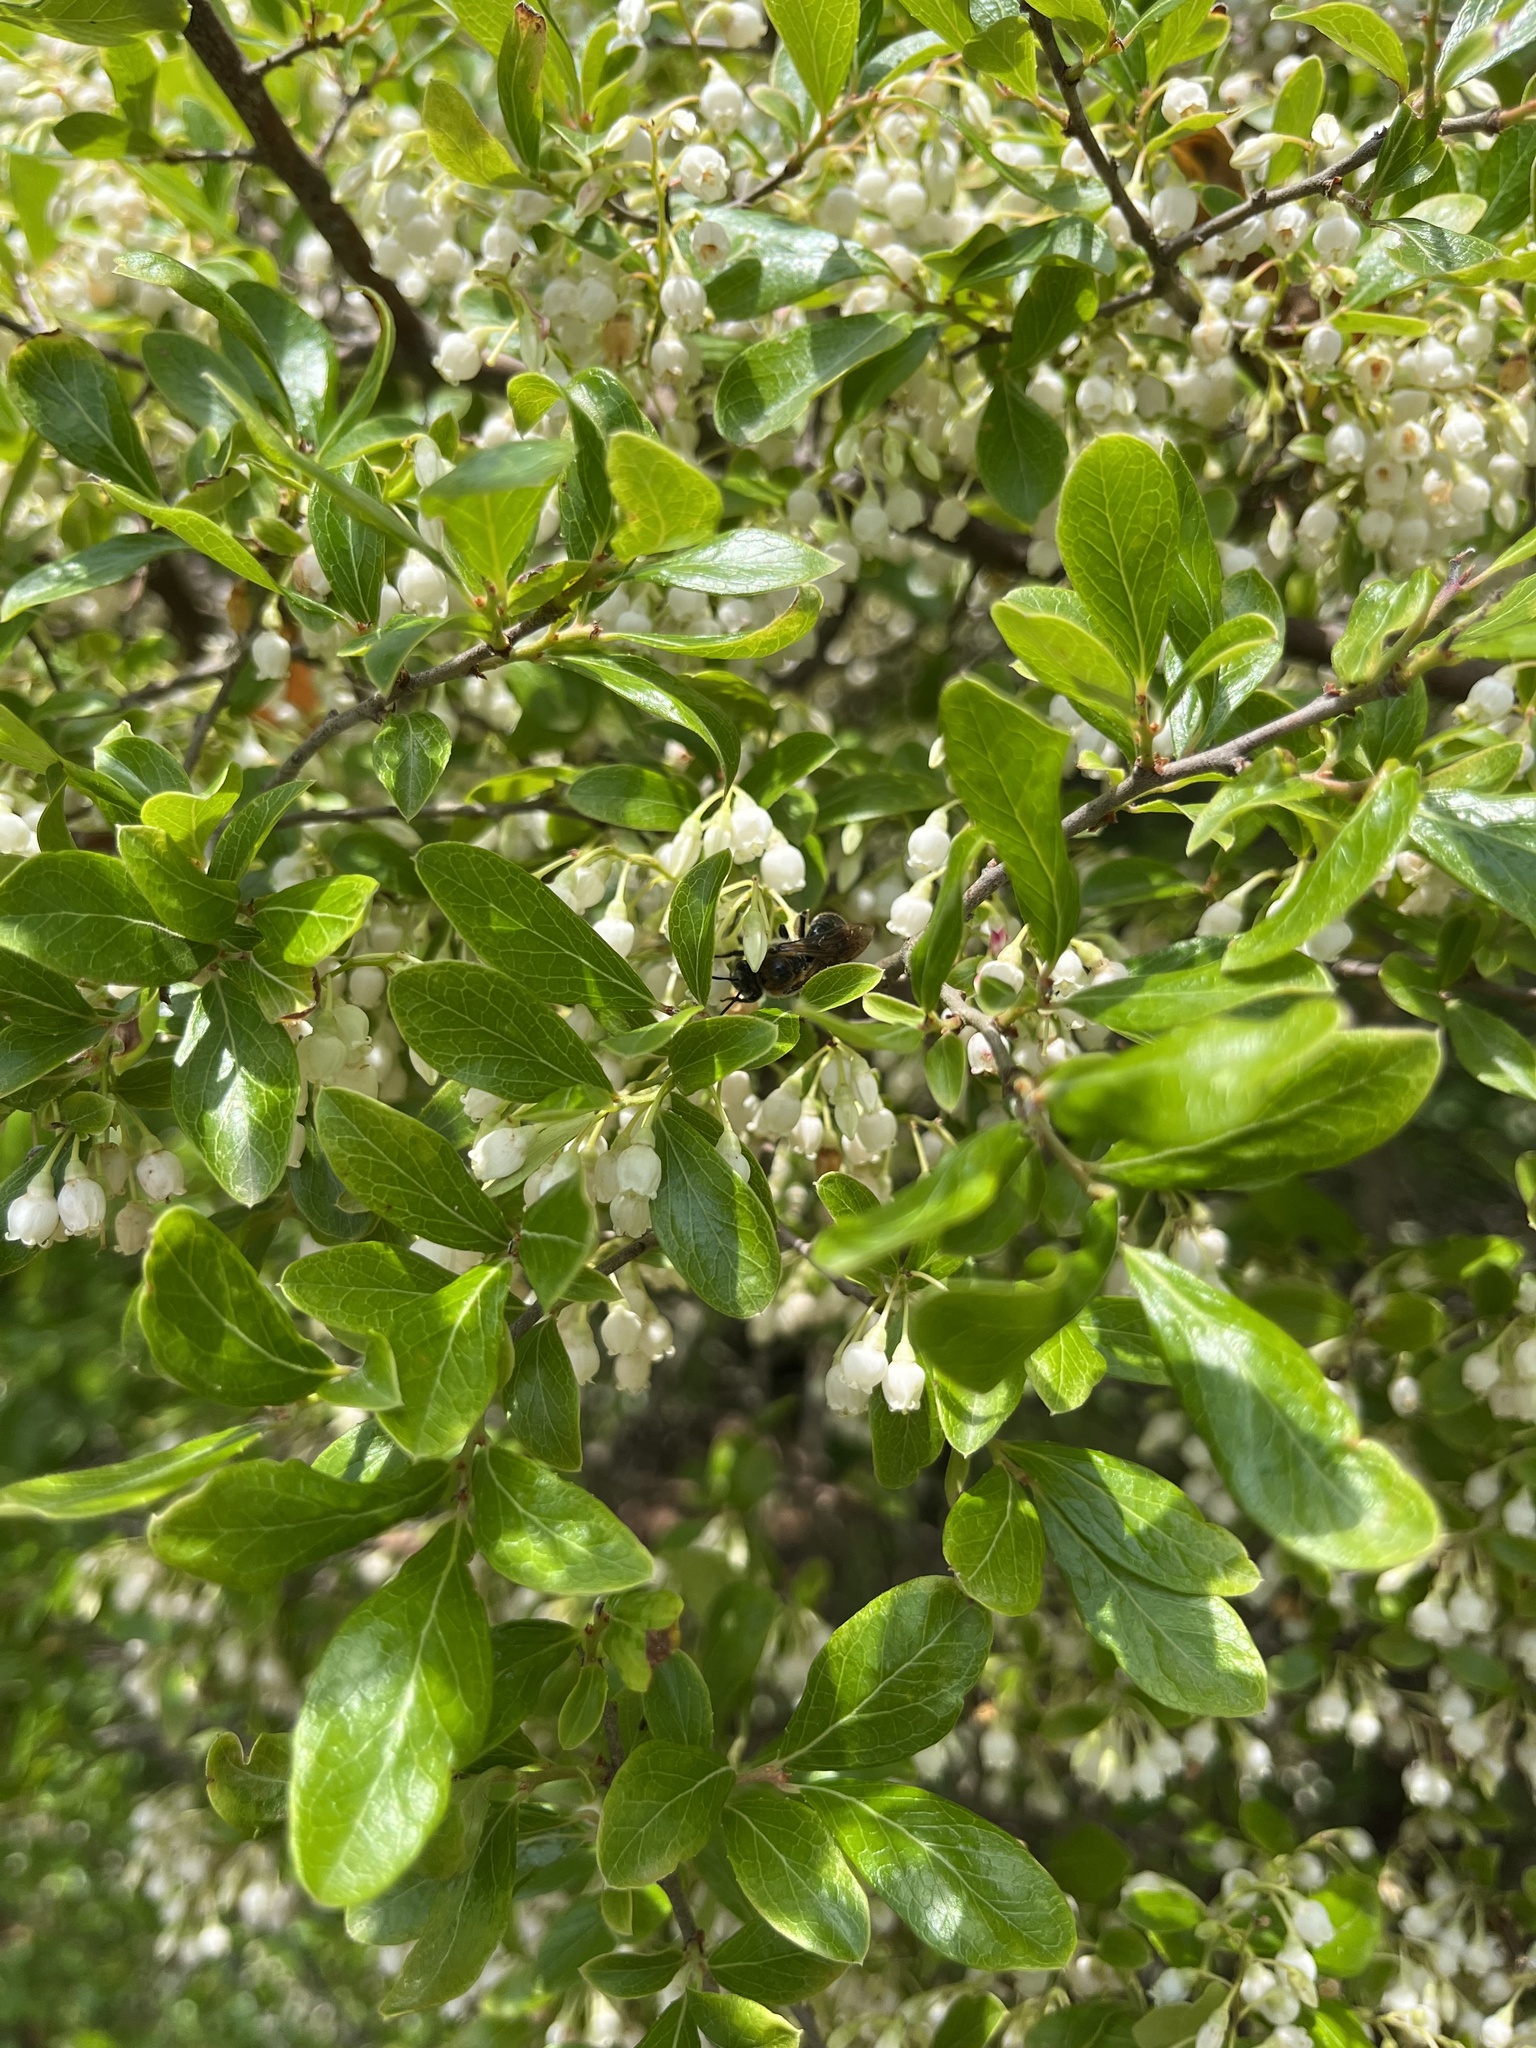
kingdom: Plantae
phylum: Tracheophyta
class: Magnoliopsida
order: Ericales
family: Ericaceae
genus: Vaccinium
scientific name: Vaccinium arboreum
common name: Farkleberry
